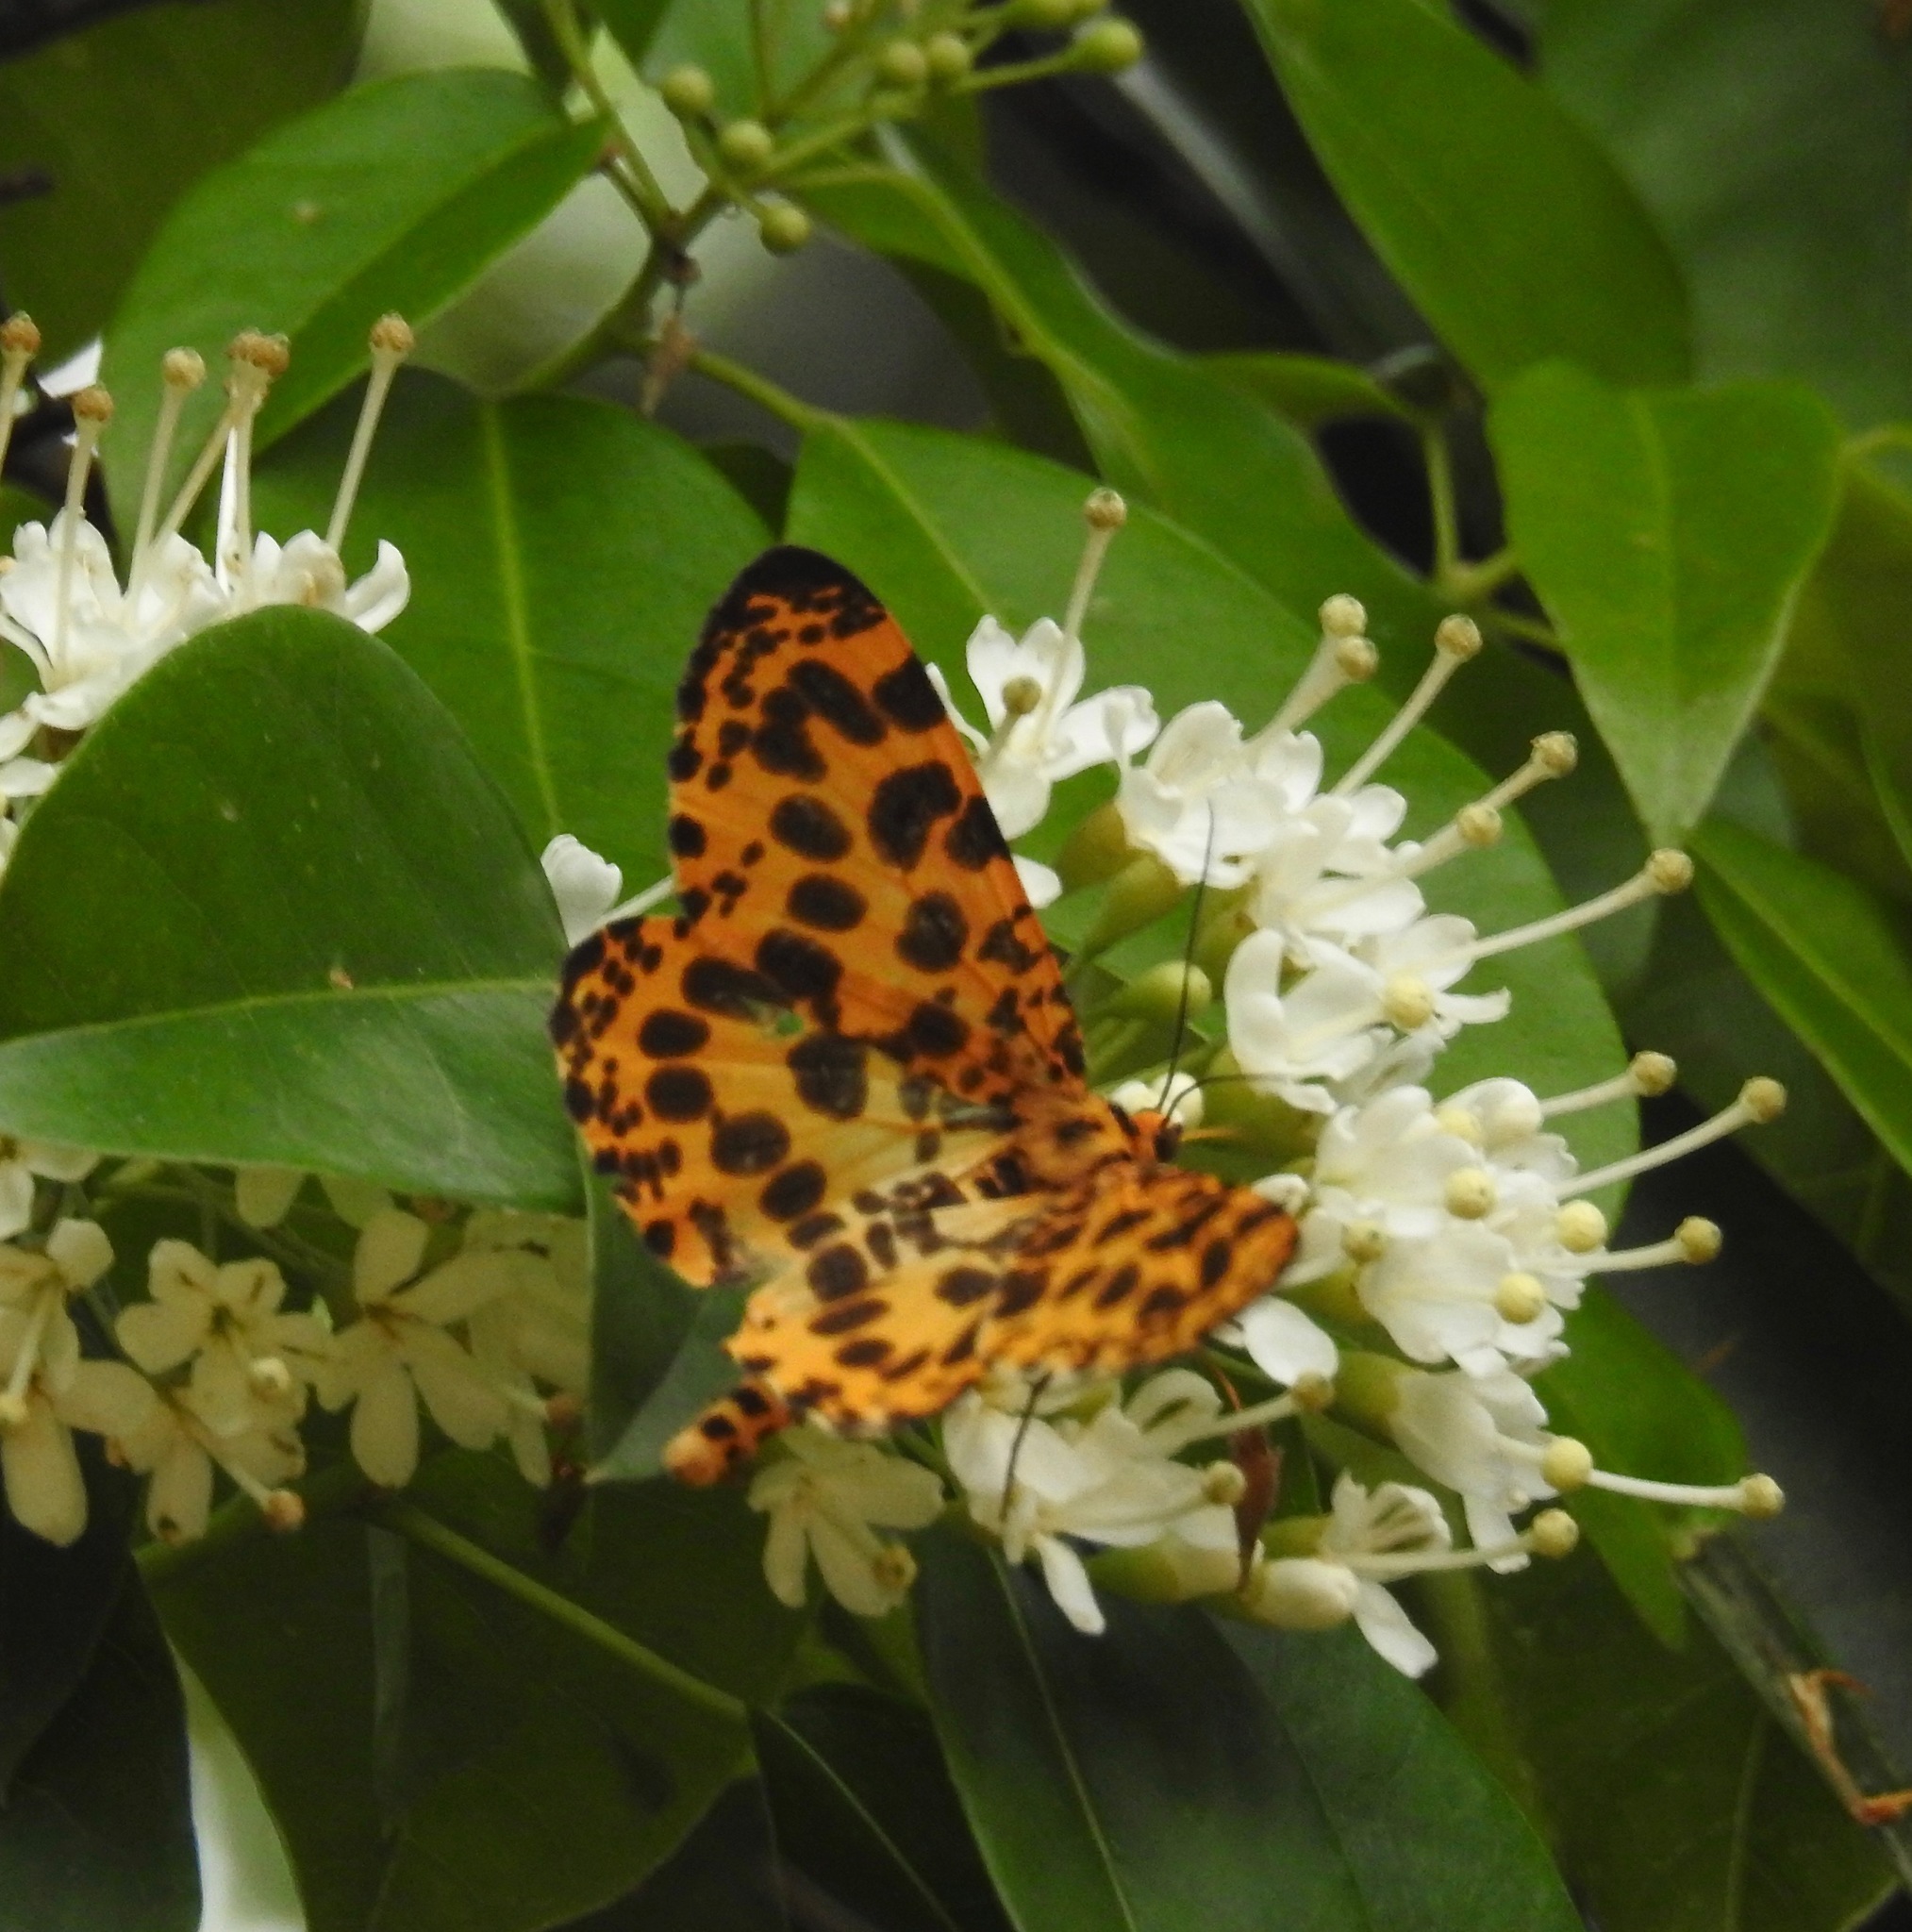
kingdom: Animalia
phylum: Arthropoda
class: Insecta
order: Lepidoptera
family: Geometridae
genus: Obeidia
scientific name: Obeidia Epobeidia tigrata
